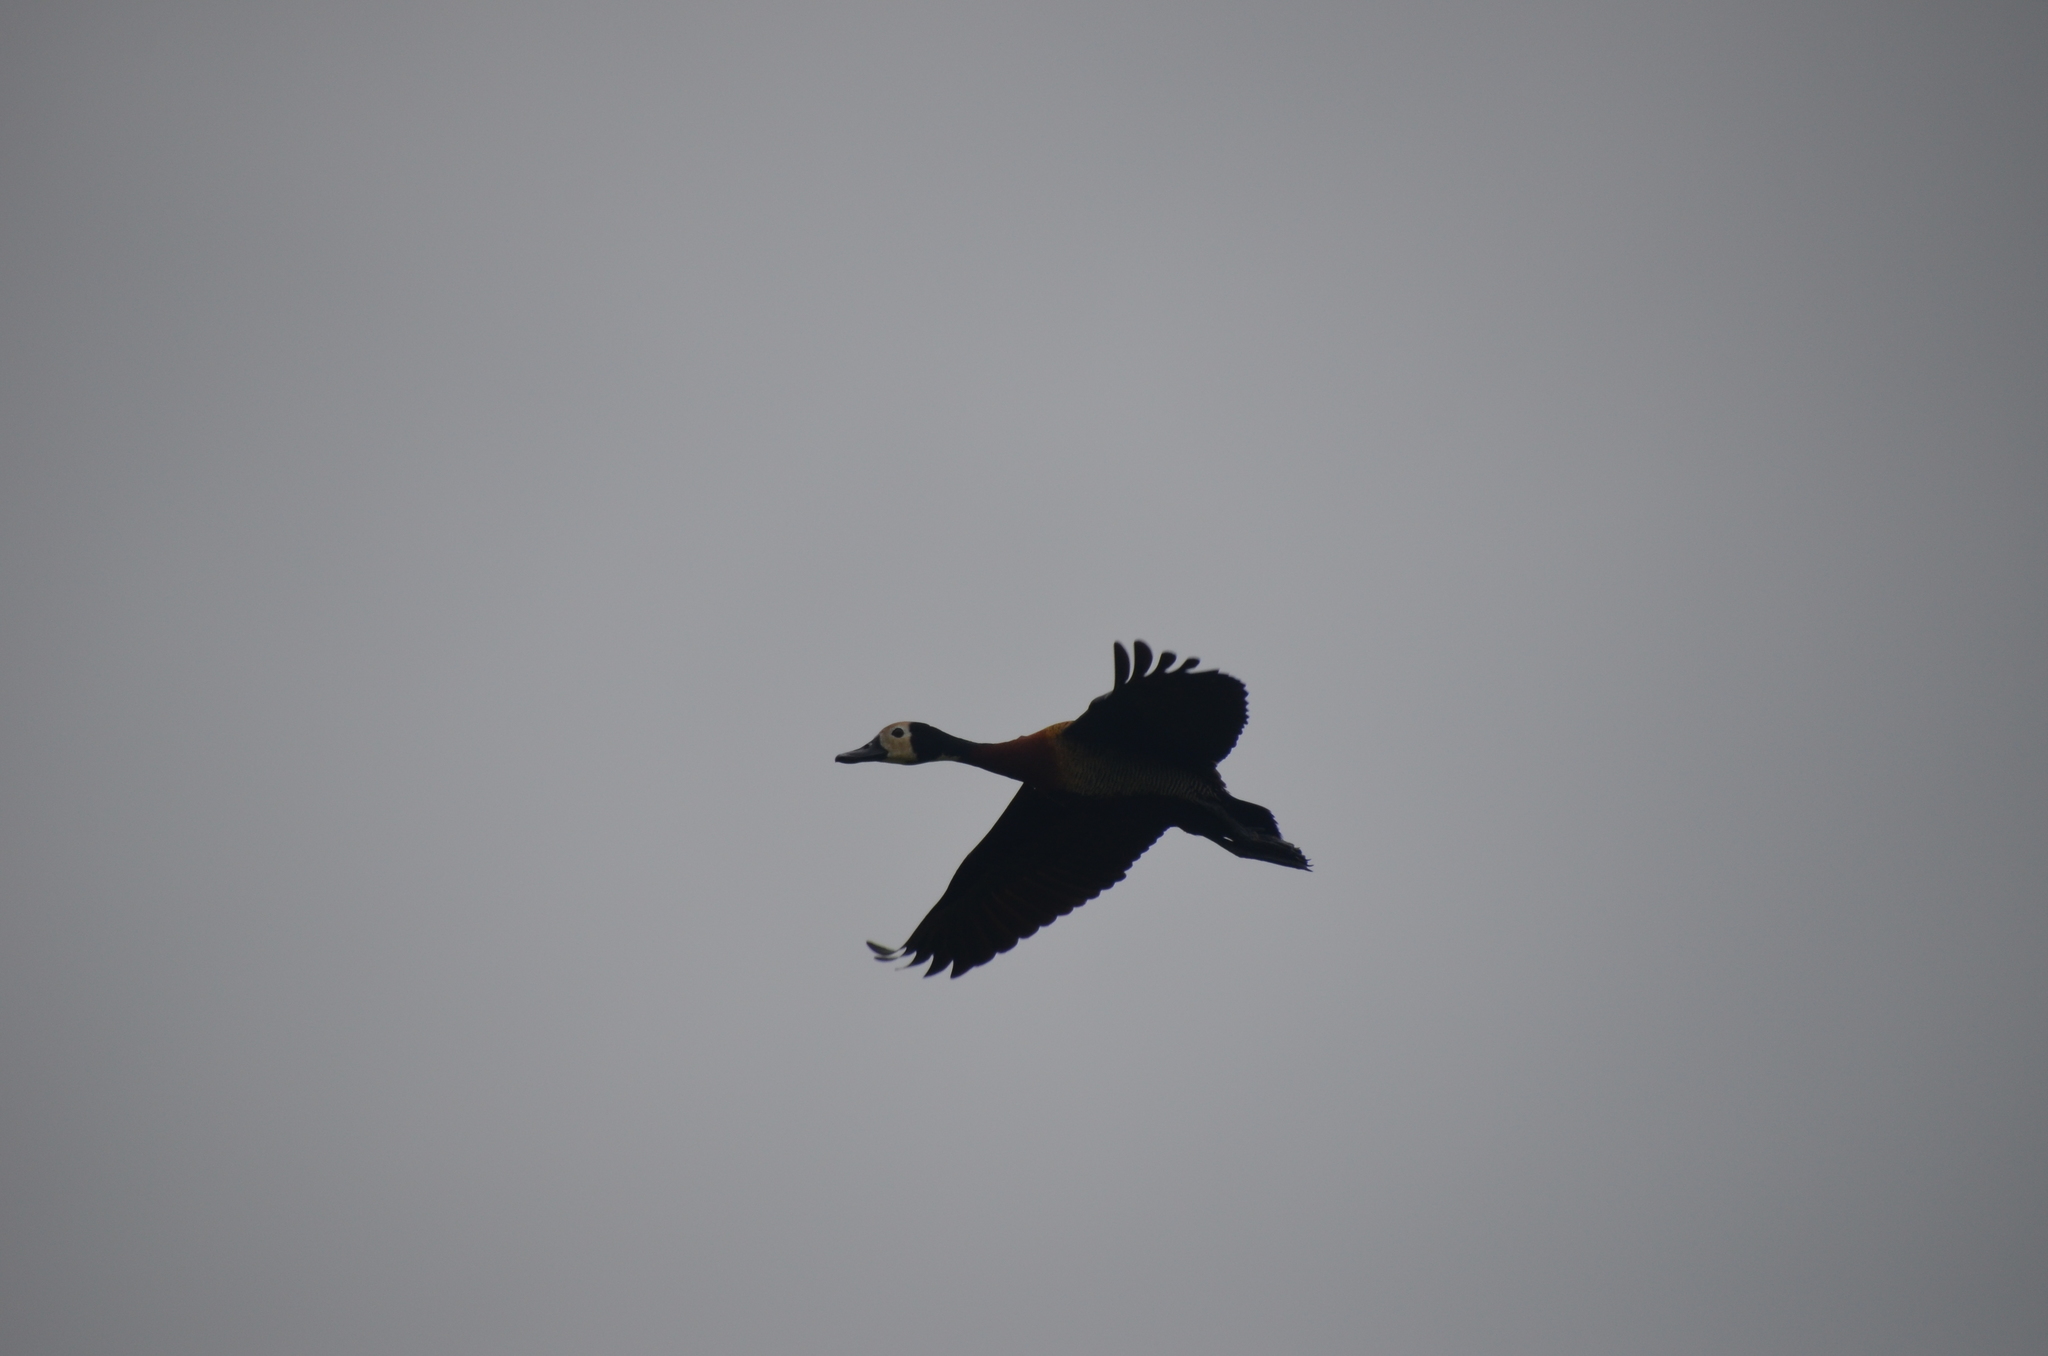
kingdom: Animalia
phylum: Chordata
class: Aves
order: Anseriformes
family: Anatidae
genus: Dendrocygna
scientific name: Dendrocygna viduata
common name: White-faced whistling duck
